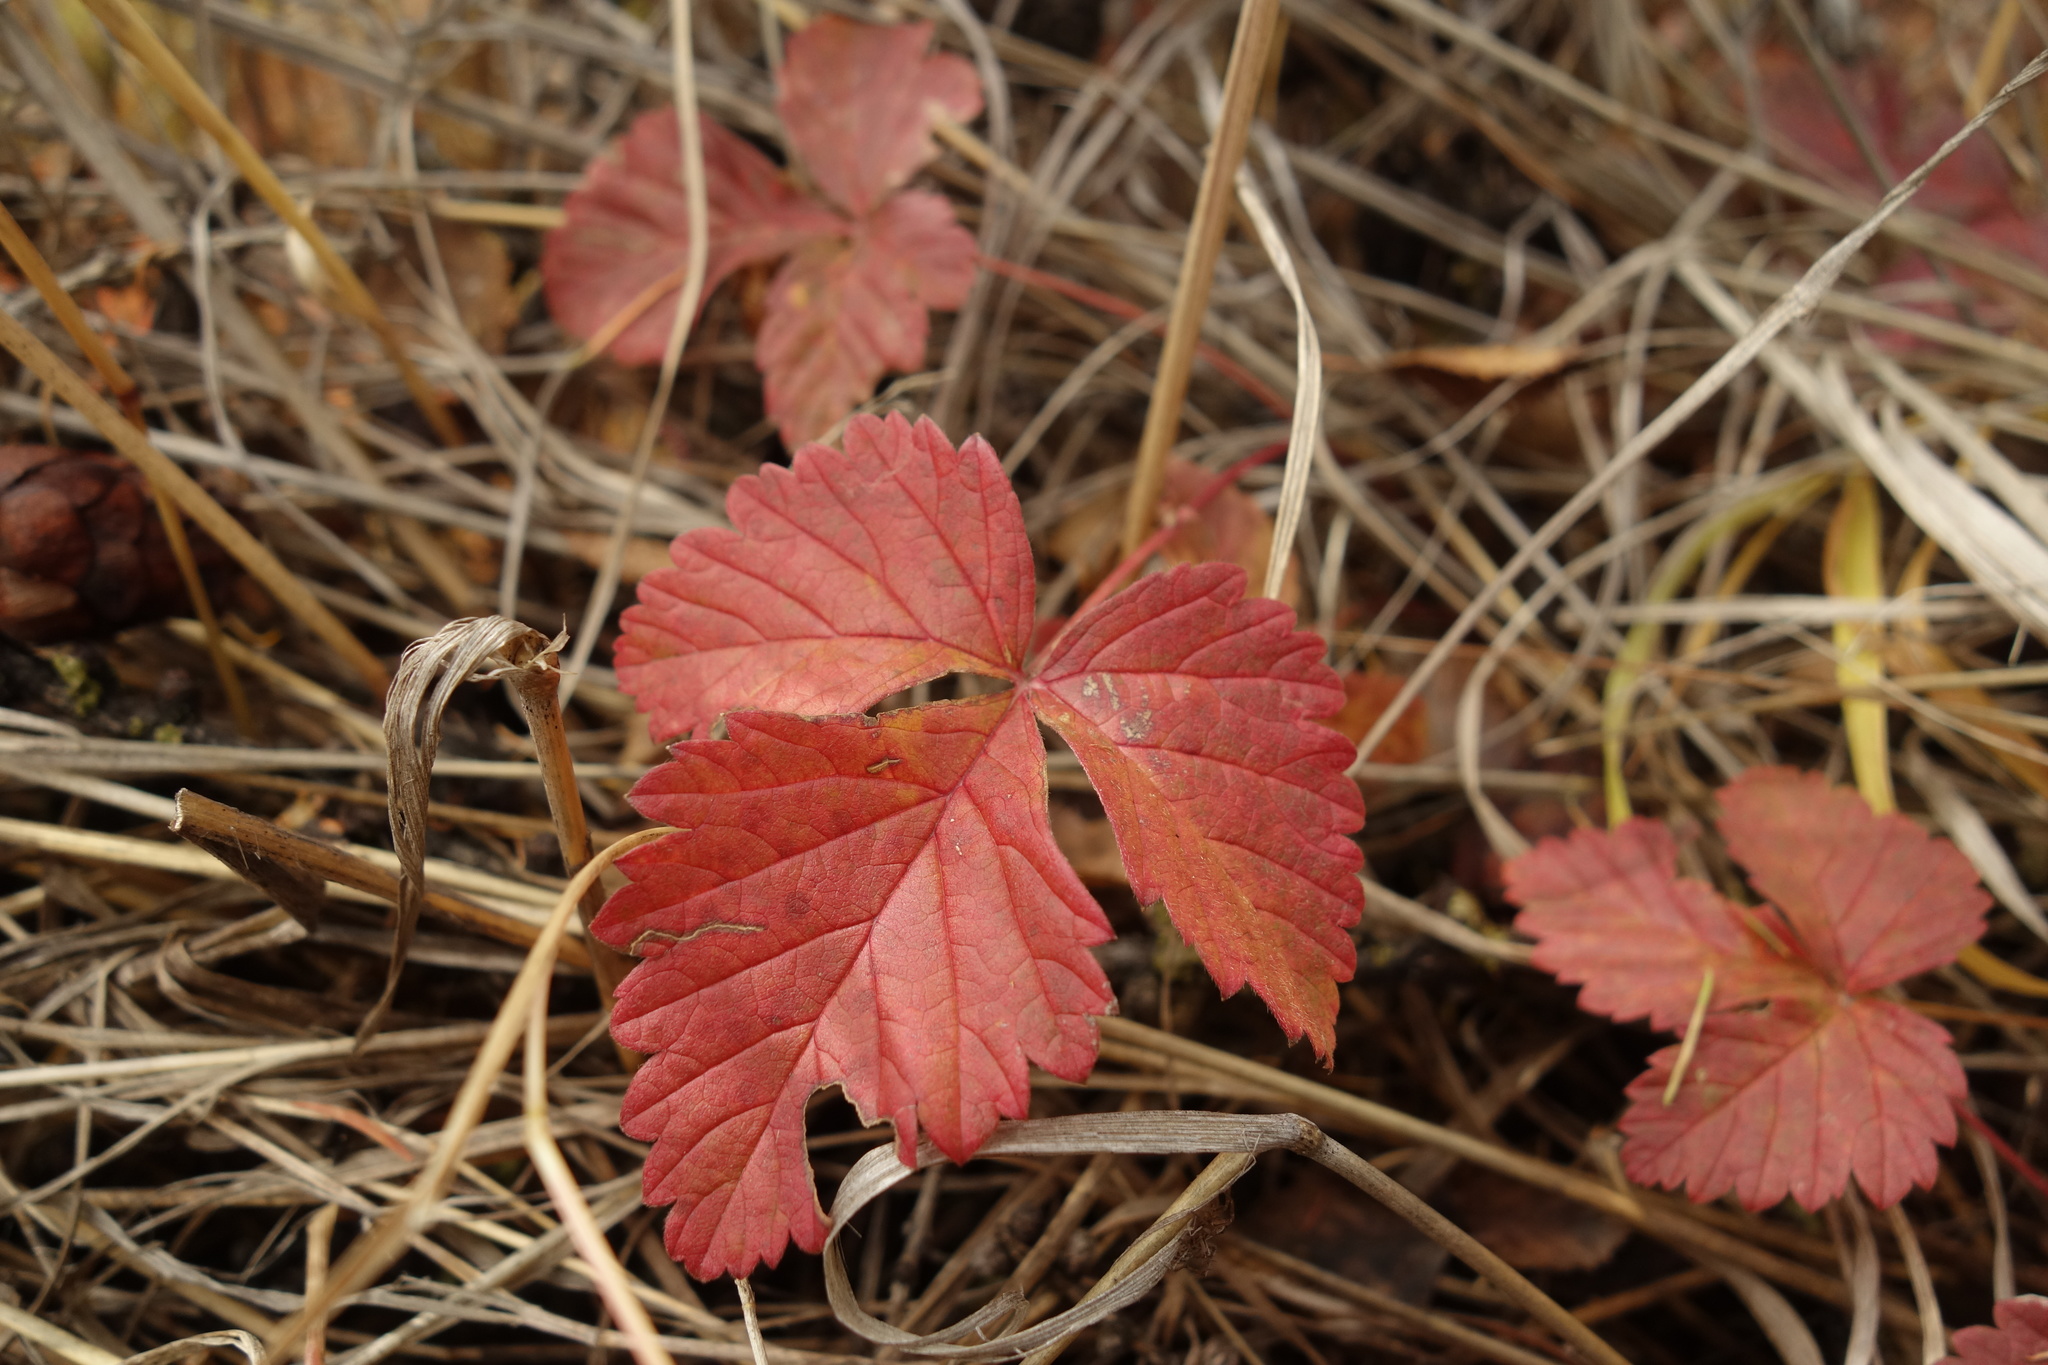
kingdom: Plantae
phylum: Tracheophyta
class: Magnoliopsida
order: Rosales
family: Rosaceae
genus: Rubus
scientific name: Rubus arcticus
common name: Arctic bramble
